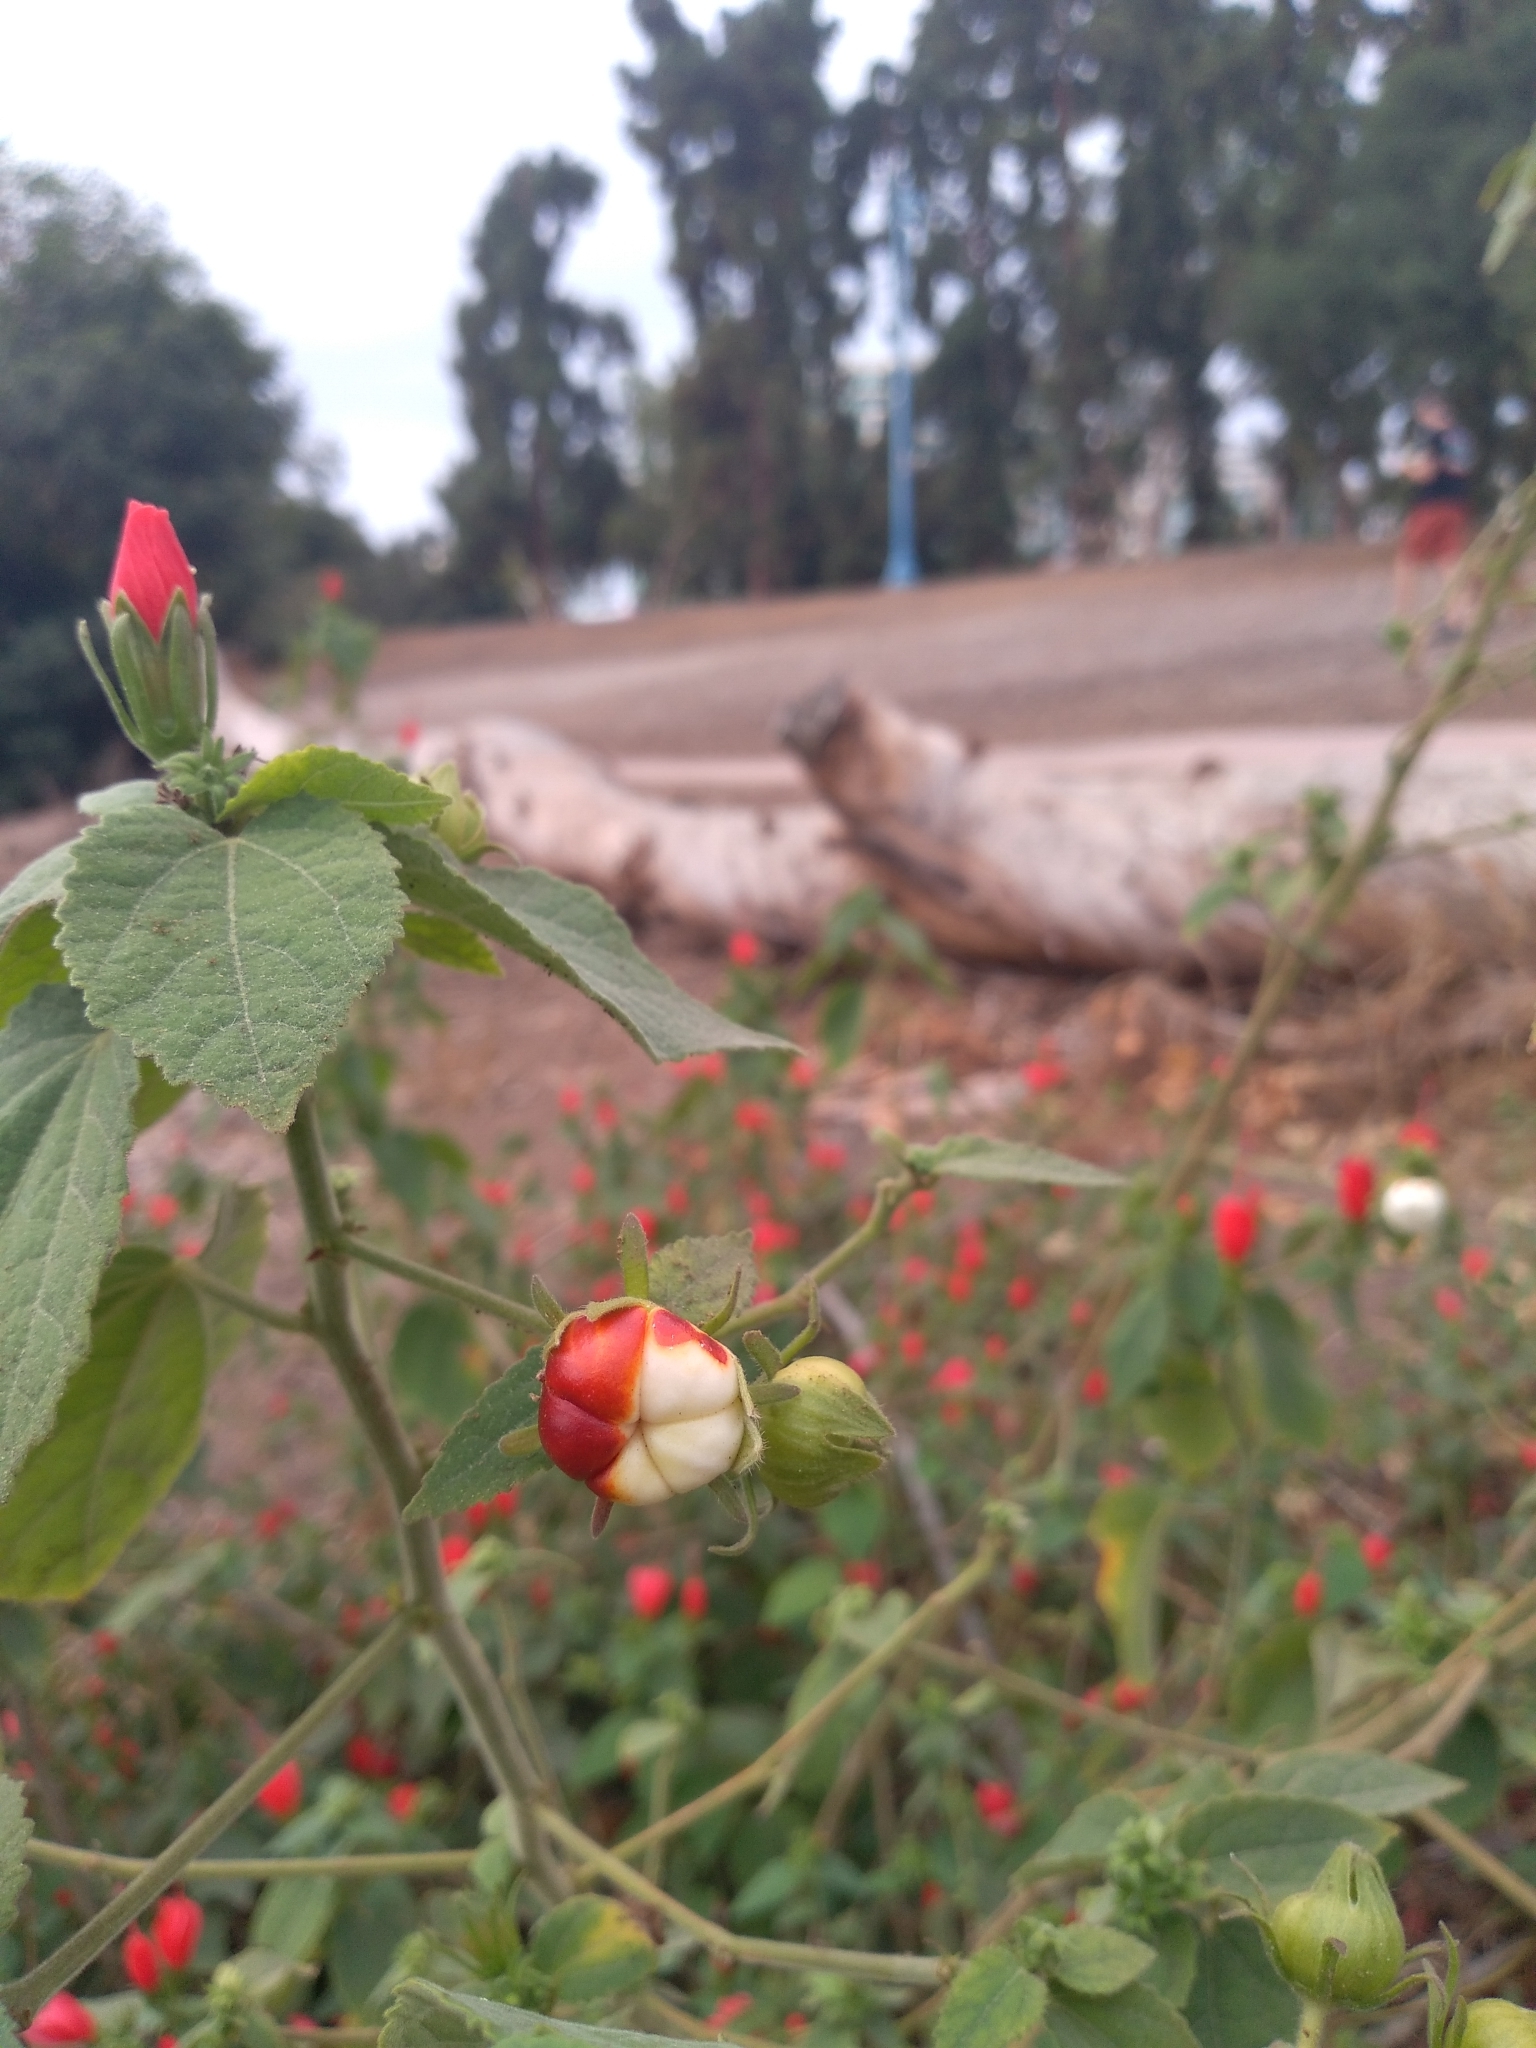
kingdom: Plantae
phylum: Tracheophyta
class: Magnoliopsida
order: Malvales
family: Malvaceae
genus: Malvaviscus
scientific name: Malvaviscus arboreus
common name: Wax mallow
